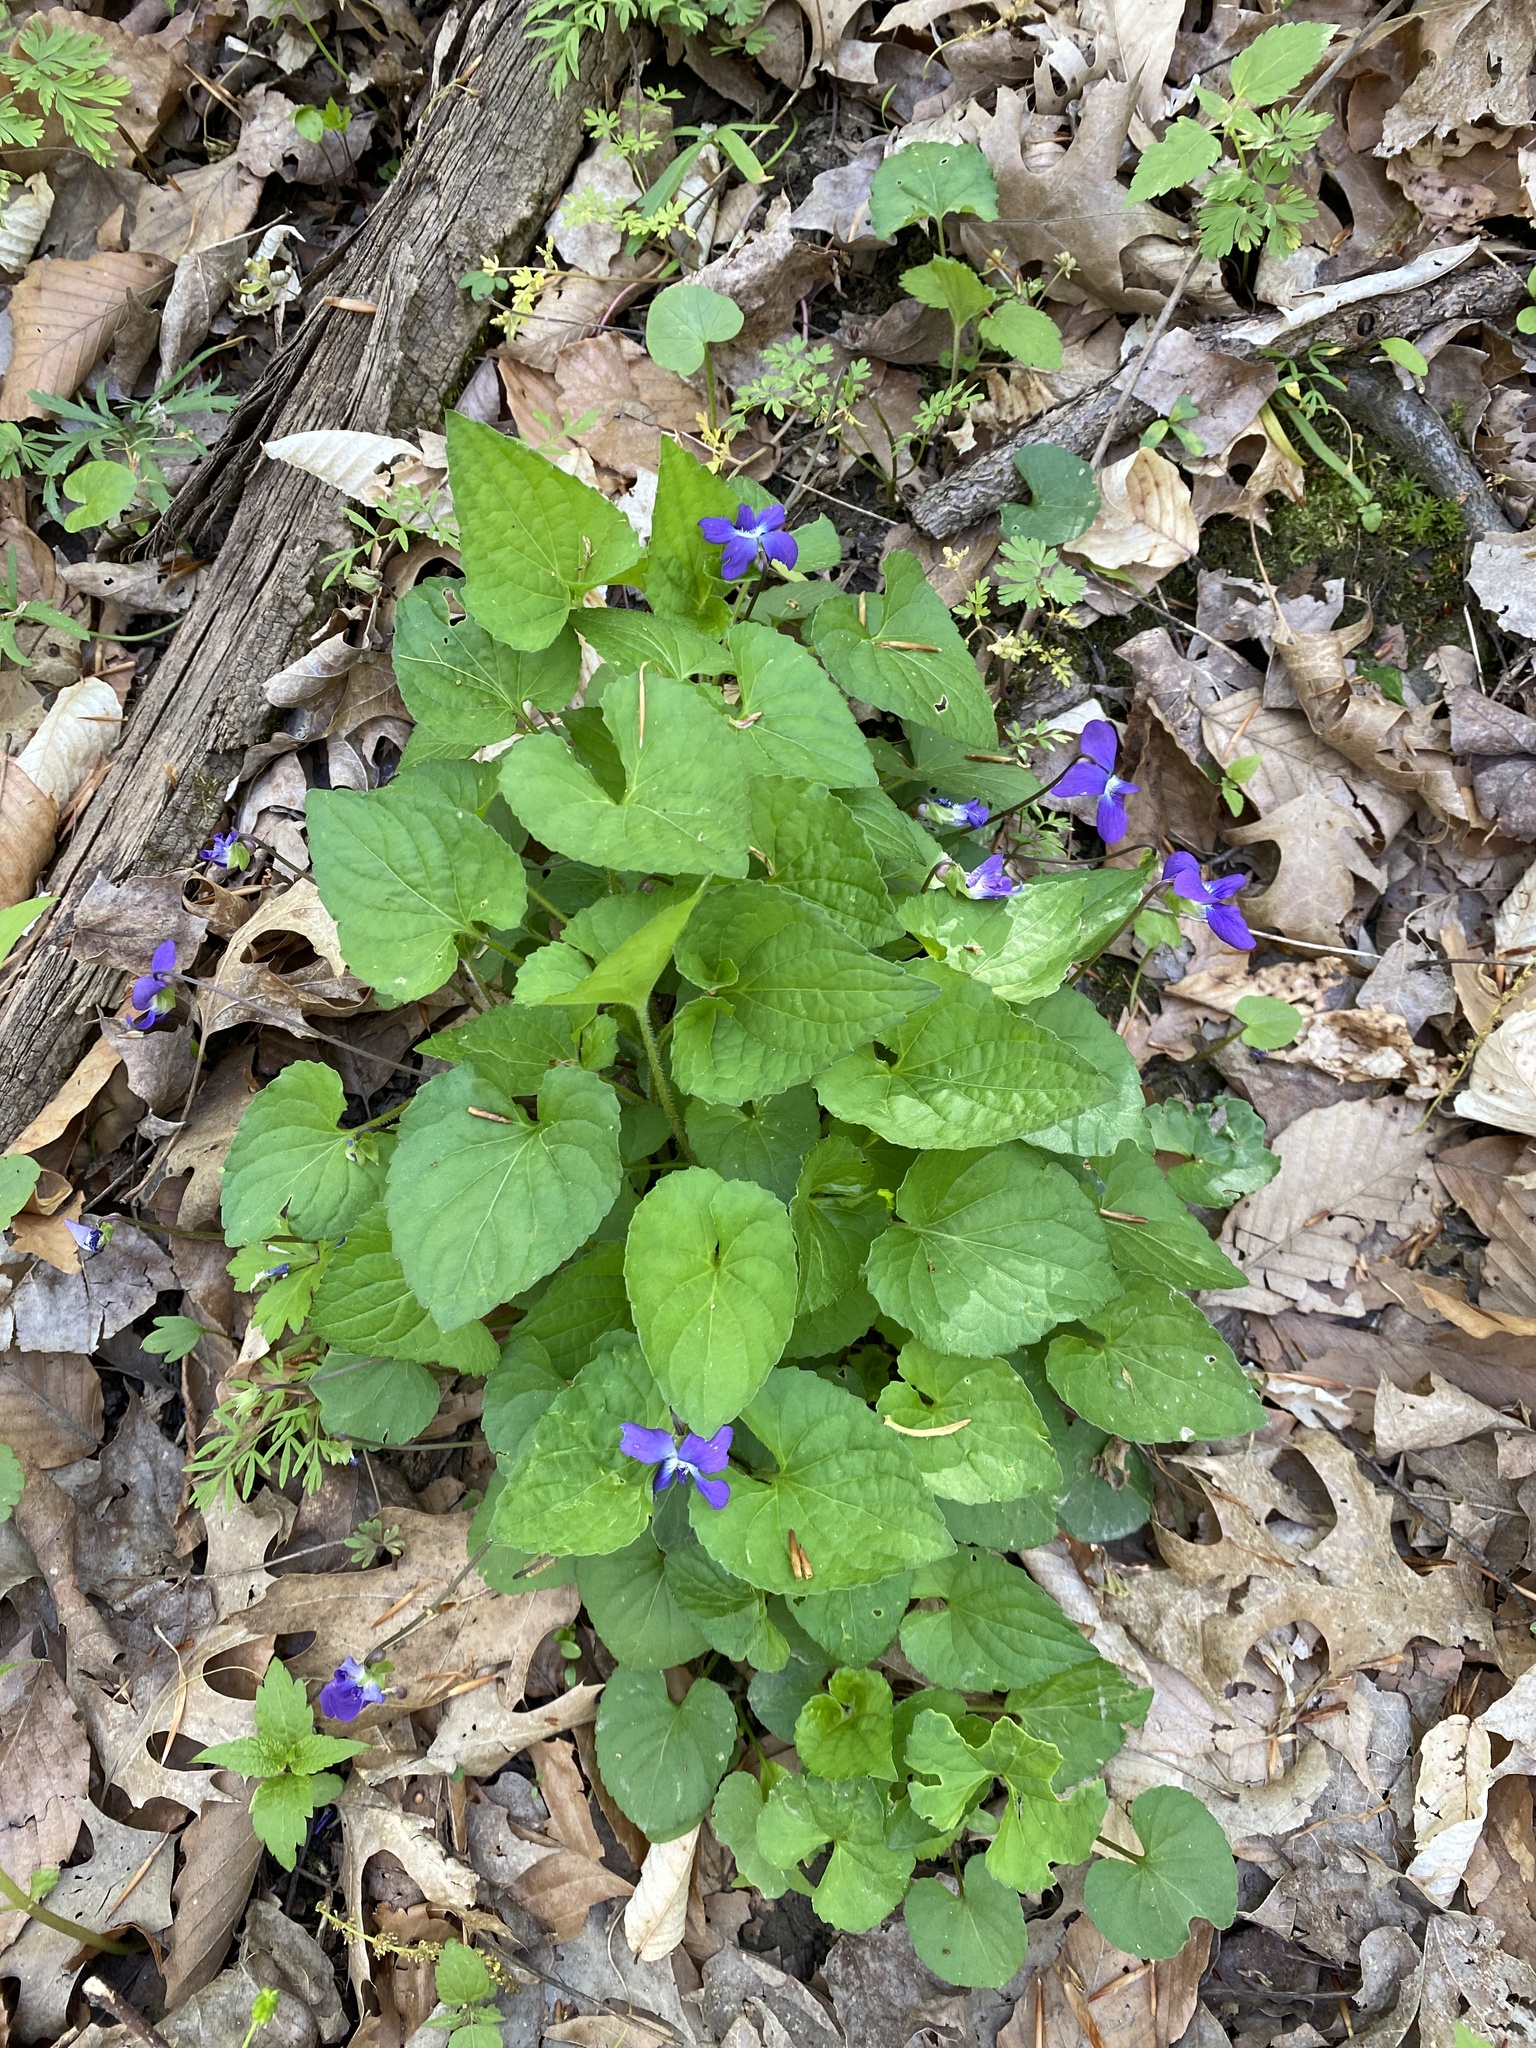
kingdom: Plantae
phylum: Tracheophyta
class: Magnoliopsida
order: Malpighiales
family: Violaceae
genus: Viola
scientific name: Viola sororia
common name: Dooryard violet
